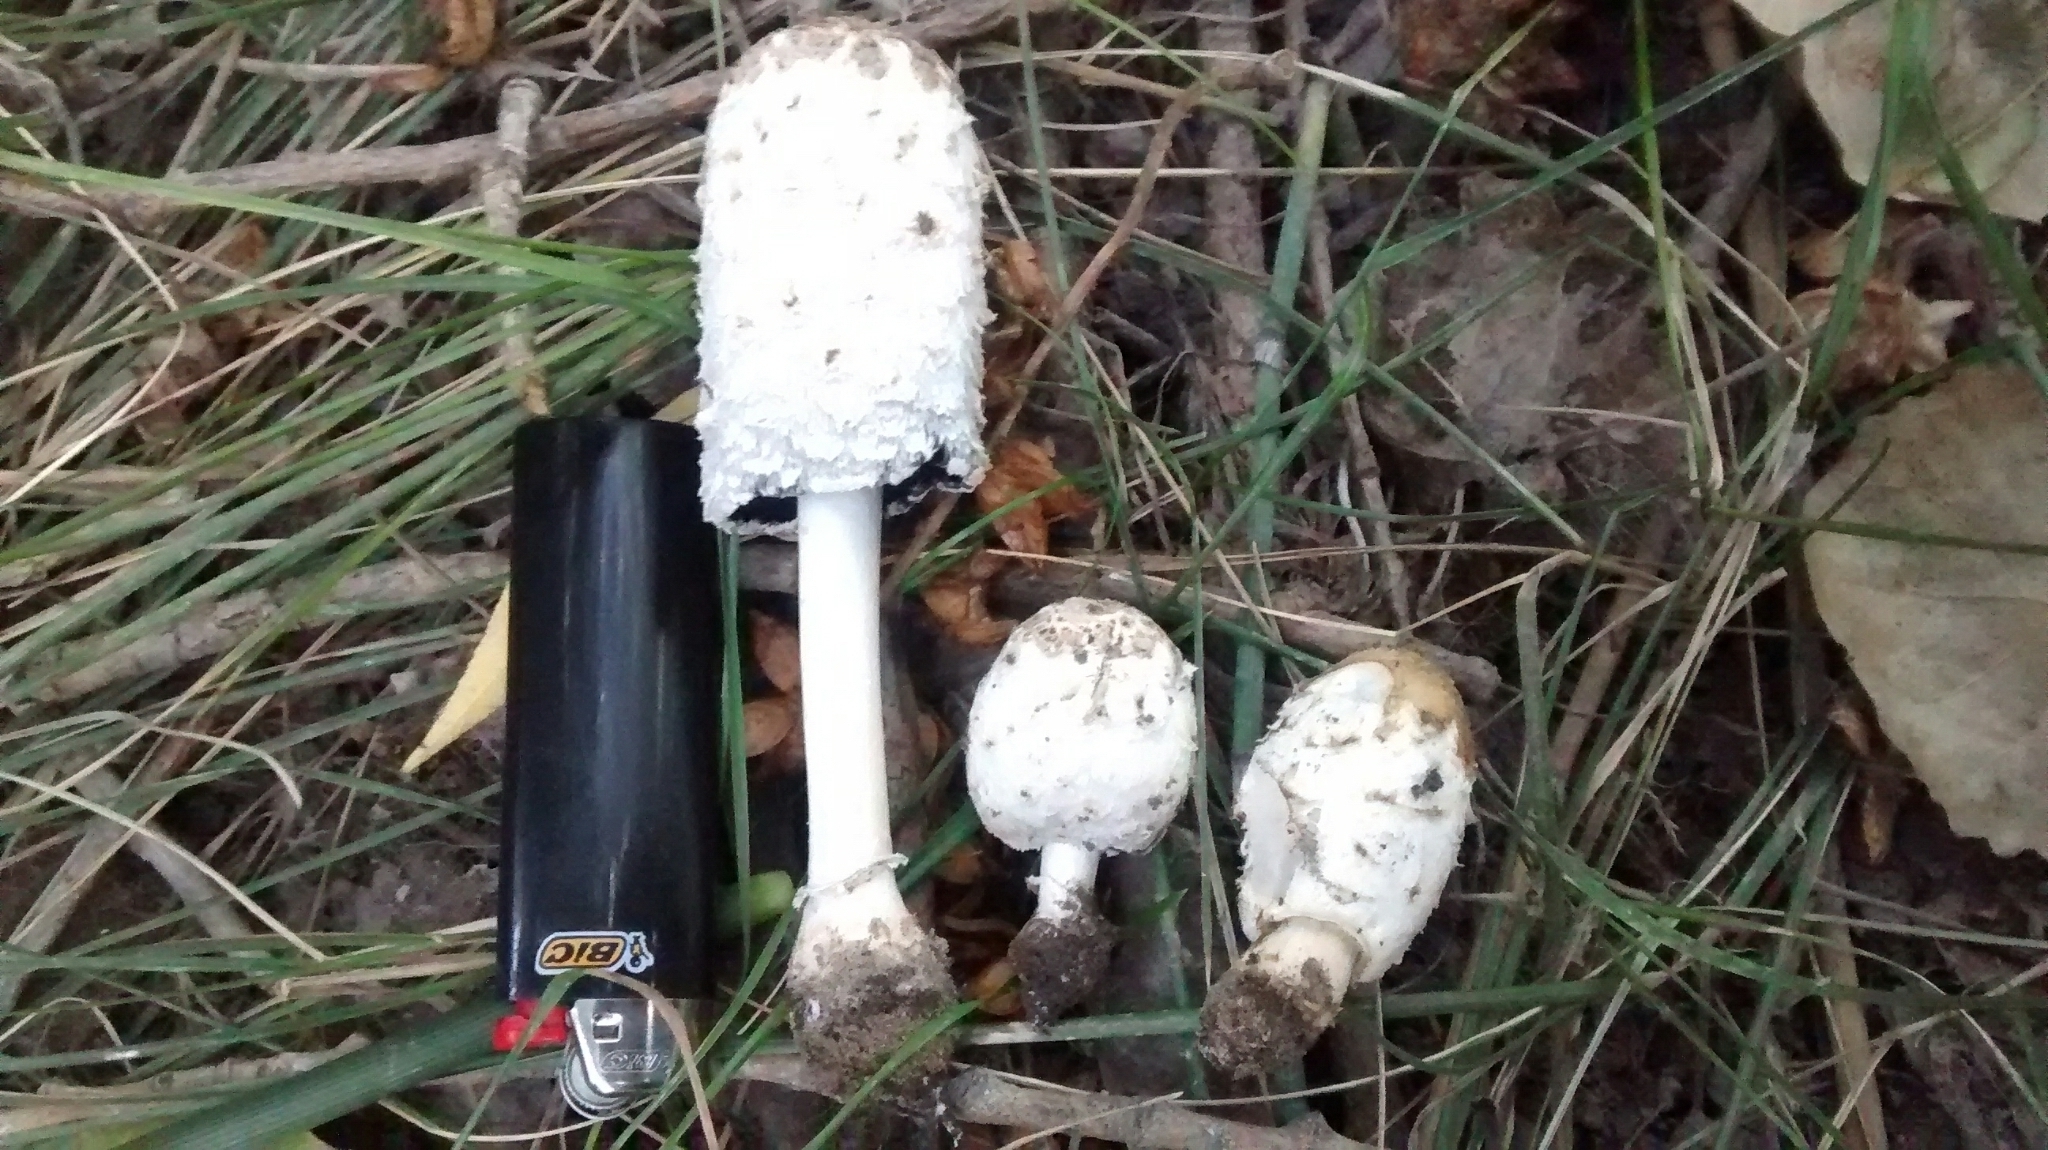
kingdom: Fungi
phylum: Basidiomycota
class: Agaricomycetes
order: Agaricales
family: Agaricaceae
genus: Coprinus
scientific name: Coprinus comatus
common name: Lawyer's wig
